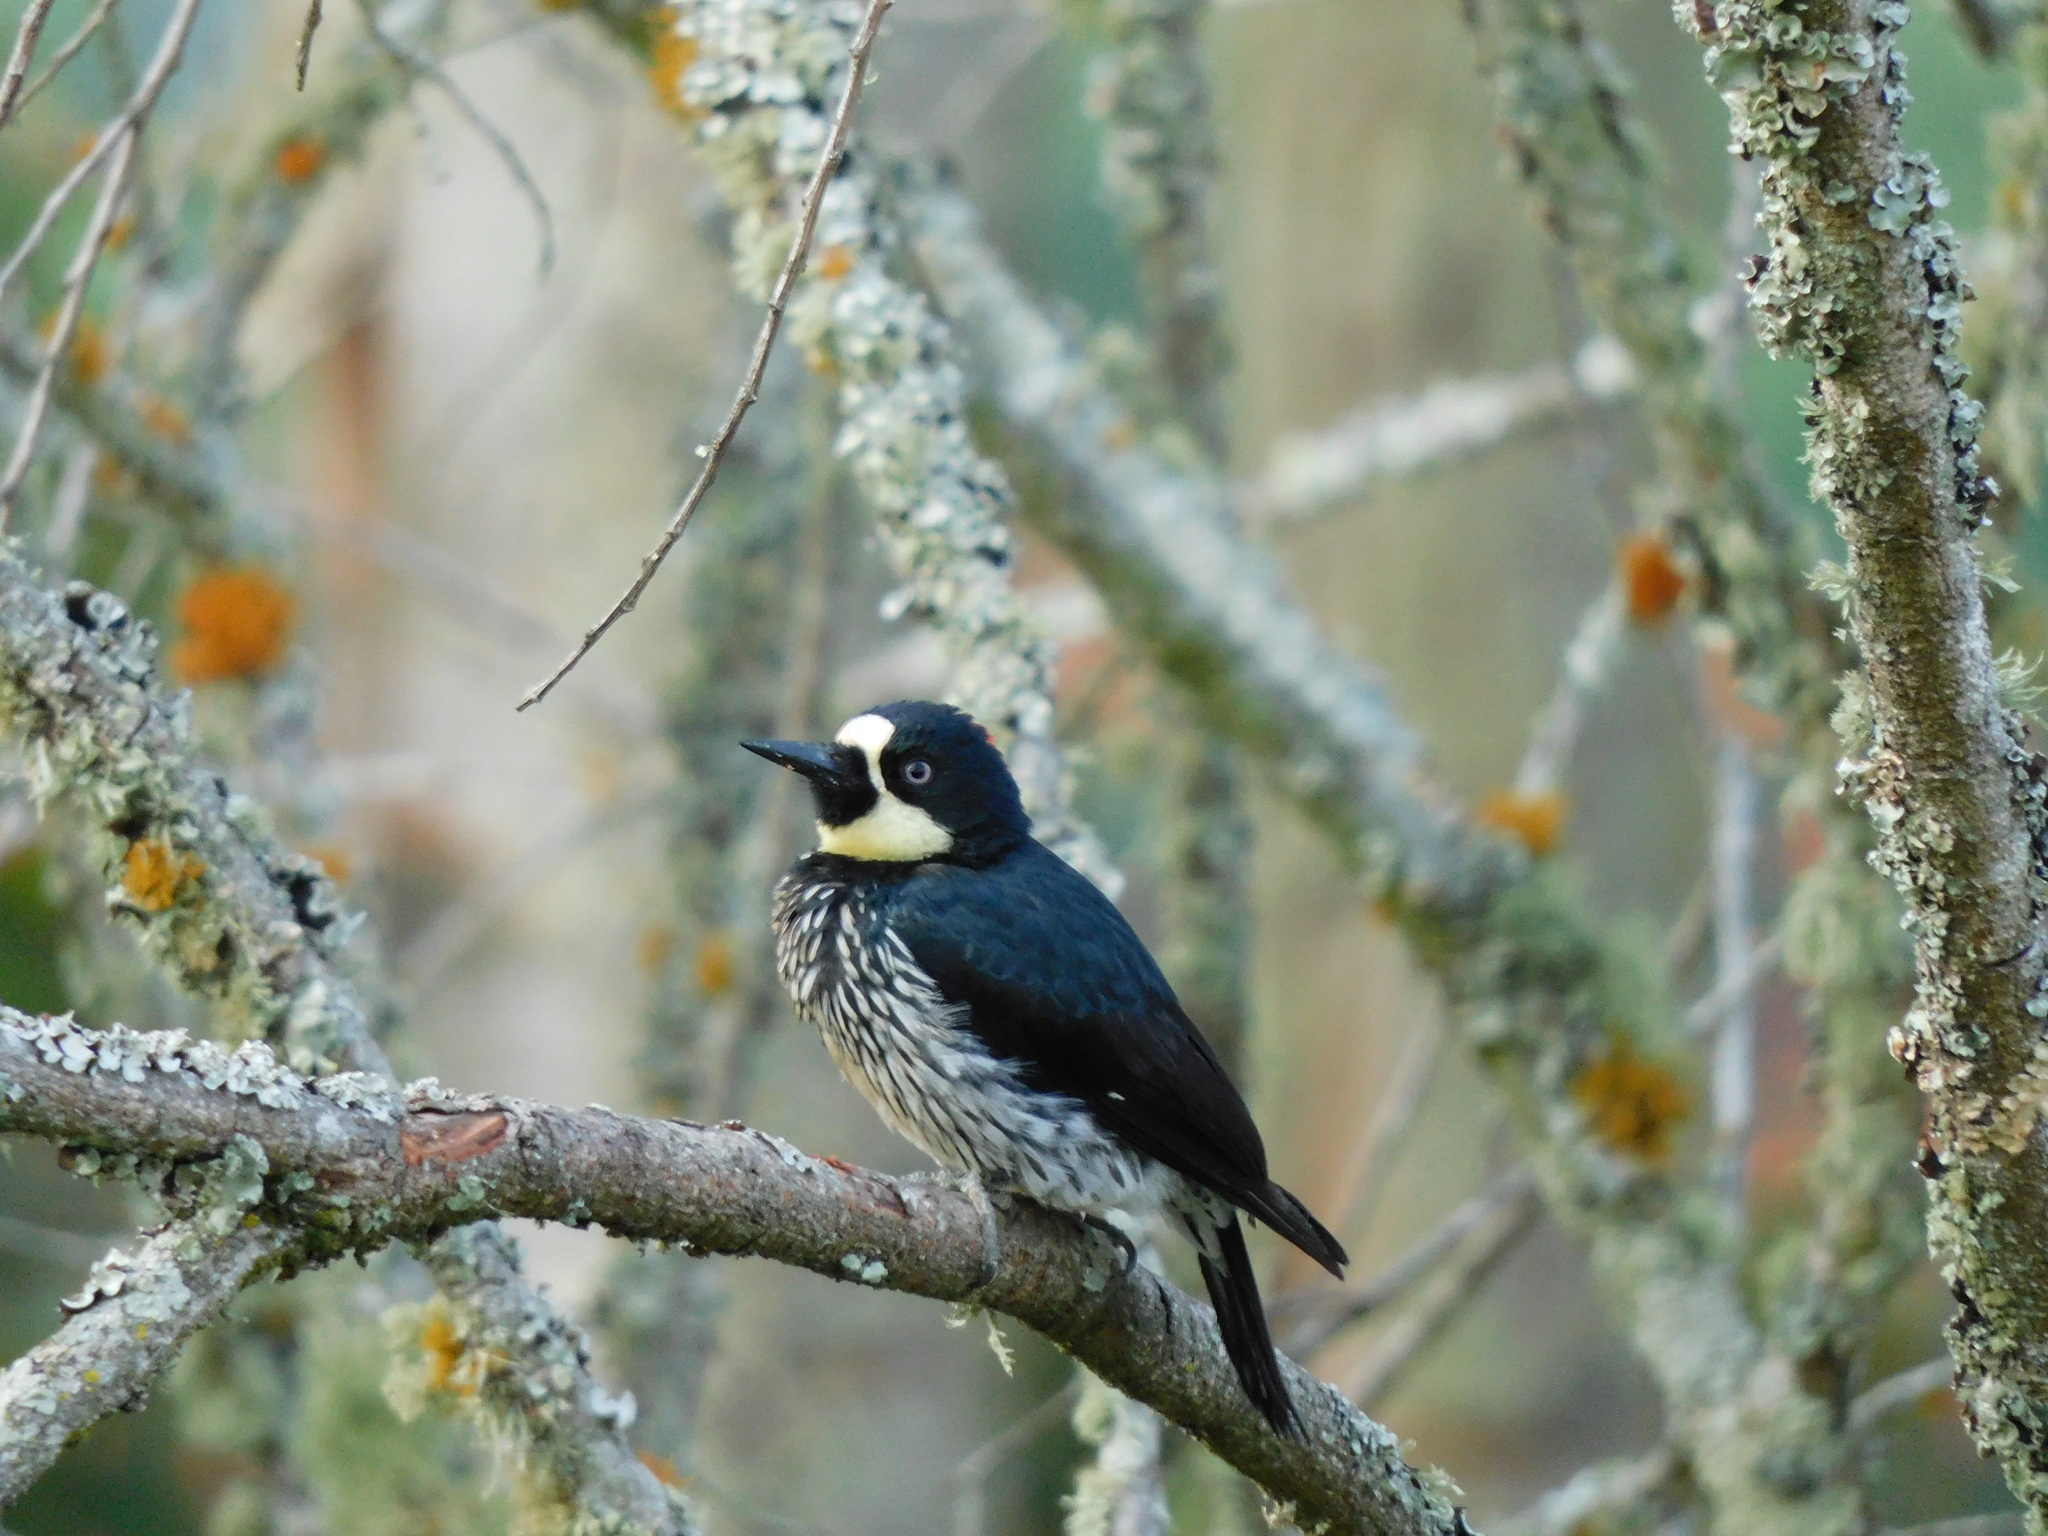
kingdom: Animalia
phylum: Chordata
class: Aves
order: Piciformes
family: Picidae
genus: Melanerpes
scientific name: Melanerpes formicivorus
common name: Acorn woodpecker
